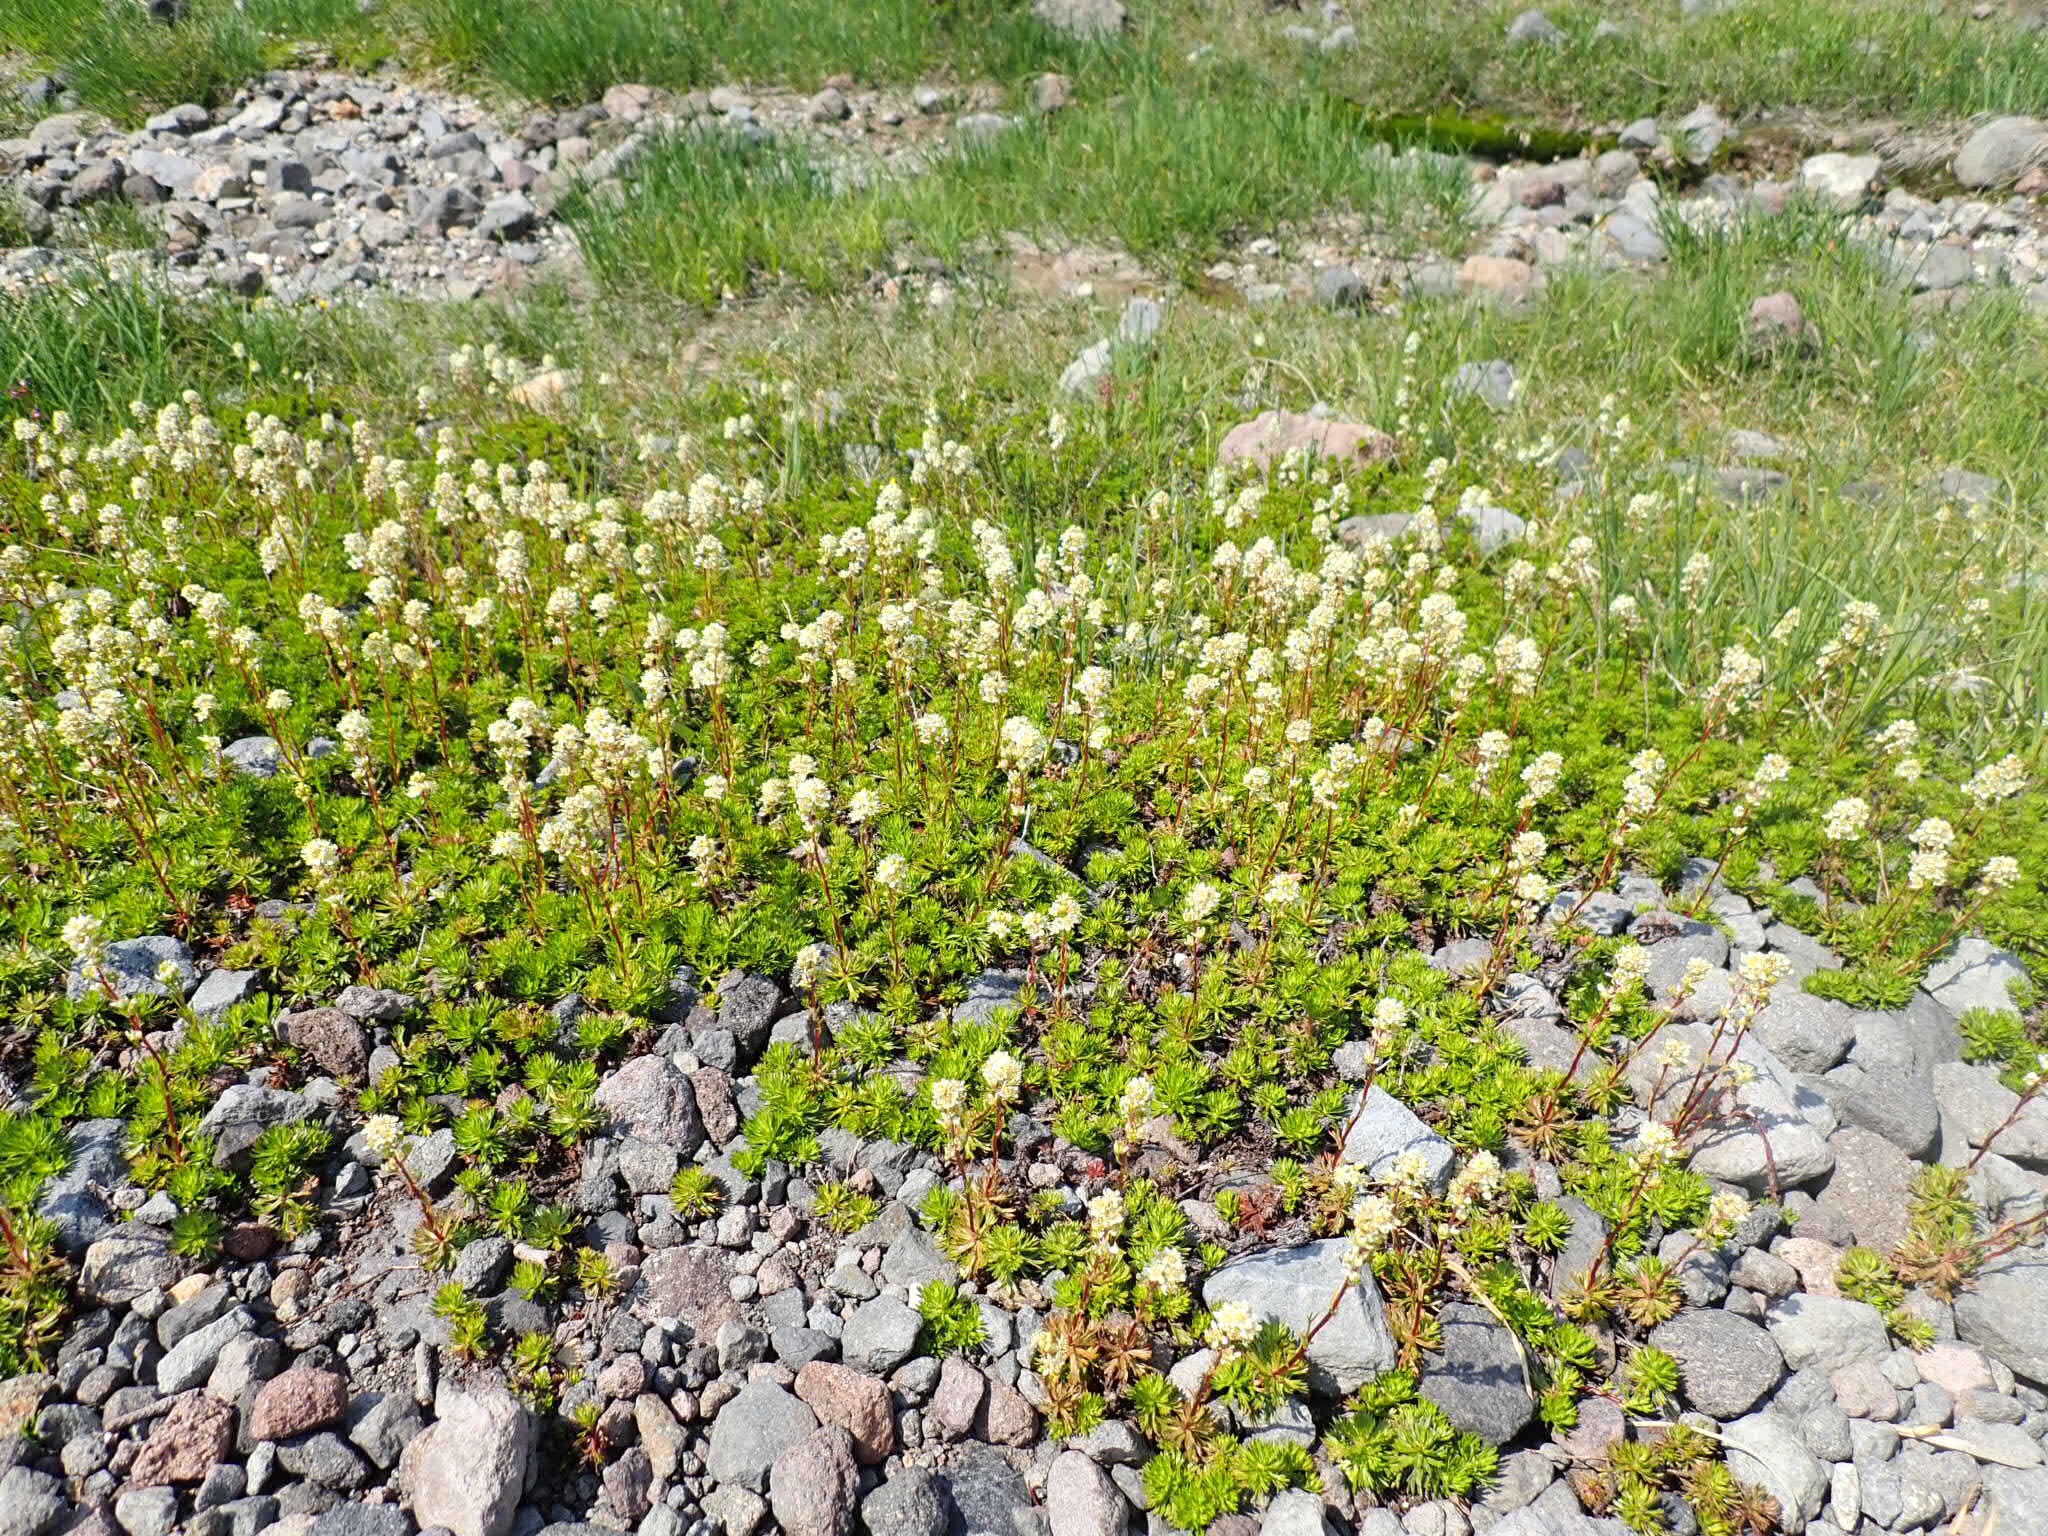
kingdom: Plantae
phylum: Tracheophyta
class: Magnoliopsida
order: Rosales
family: Rosaceae
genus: Luetkea
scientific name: Luetkea pectinata
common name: Partridgefoot
